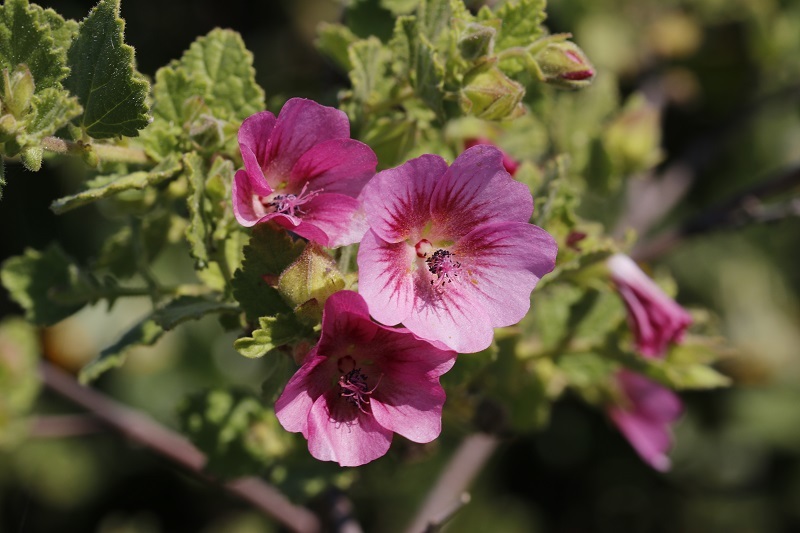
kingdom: Plantae
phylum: Tracheophyta
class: Magnoliopsida
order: Malvales
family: Malvaceae
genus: Anisodontea
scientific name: Anisodontea scabrosa
